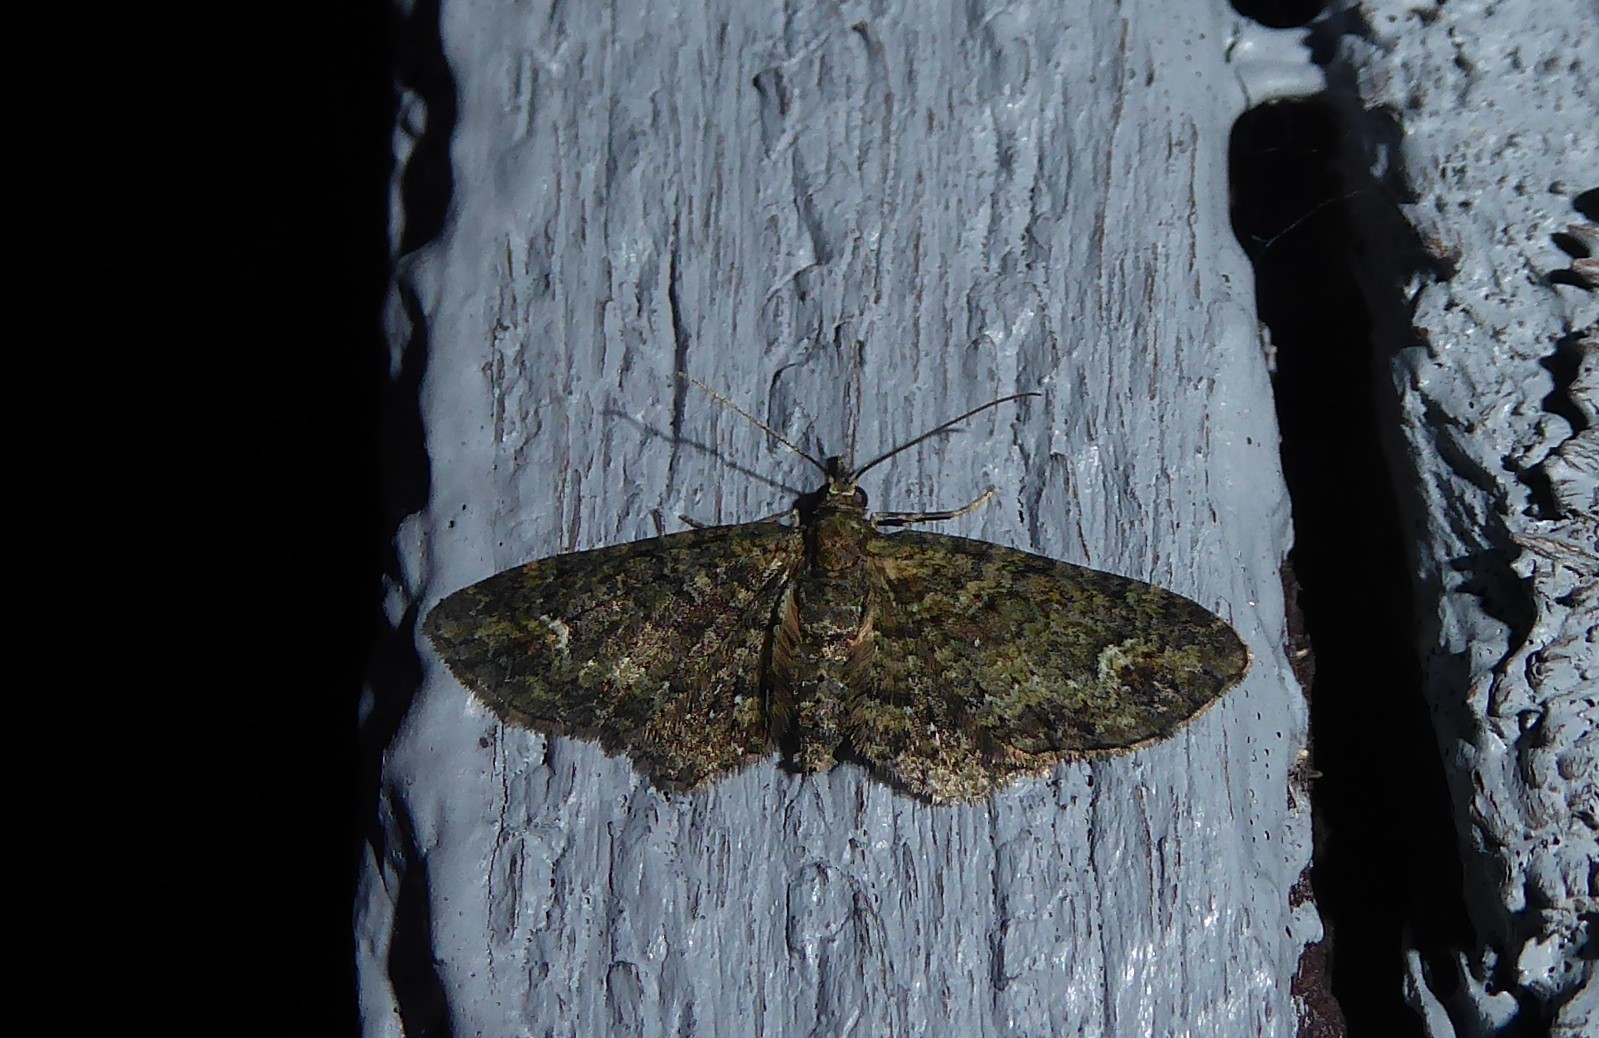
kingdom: Animalia
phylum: Arthropoda
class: Insecta
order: Lepidoptera
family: Geometridae
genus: Pasiphilodes
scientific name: Pasiphilodes testulata
